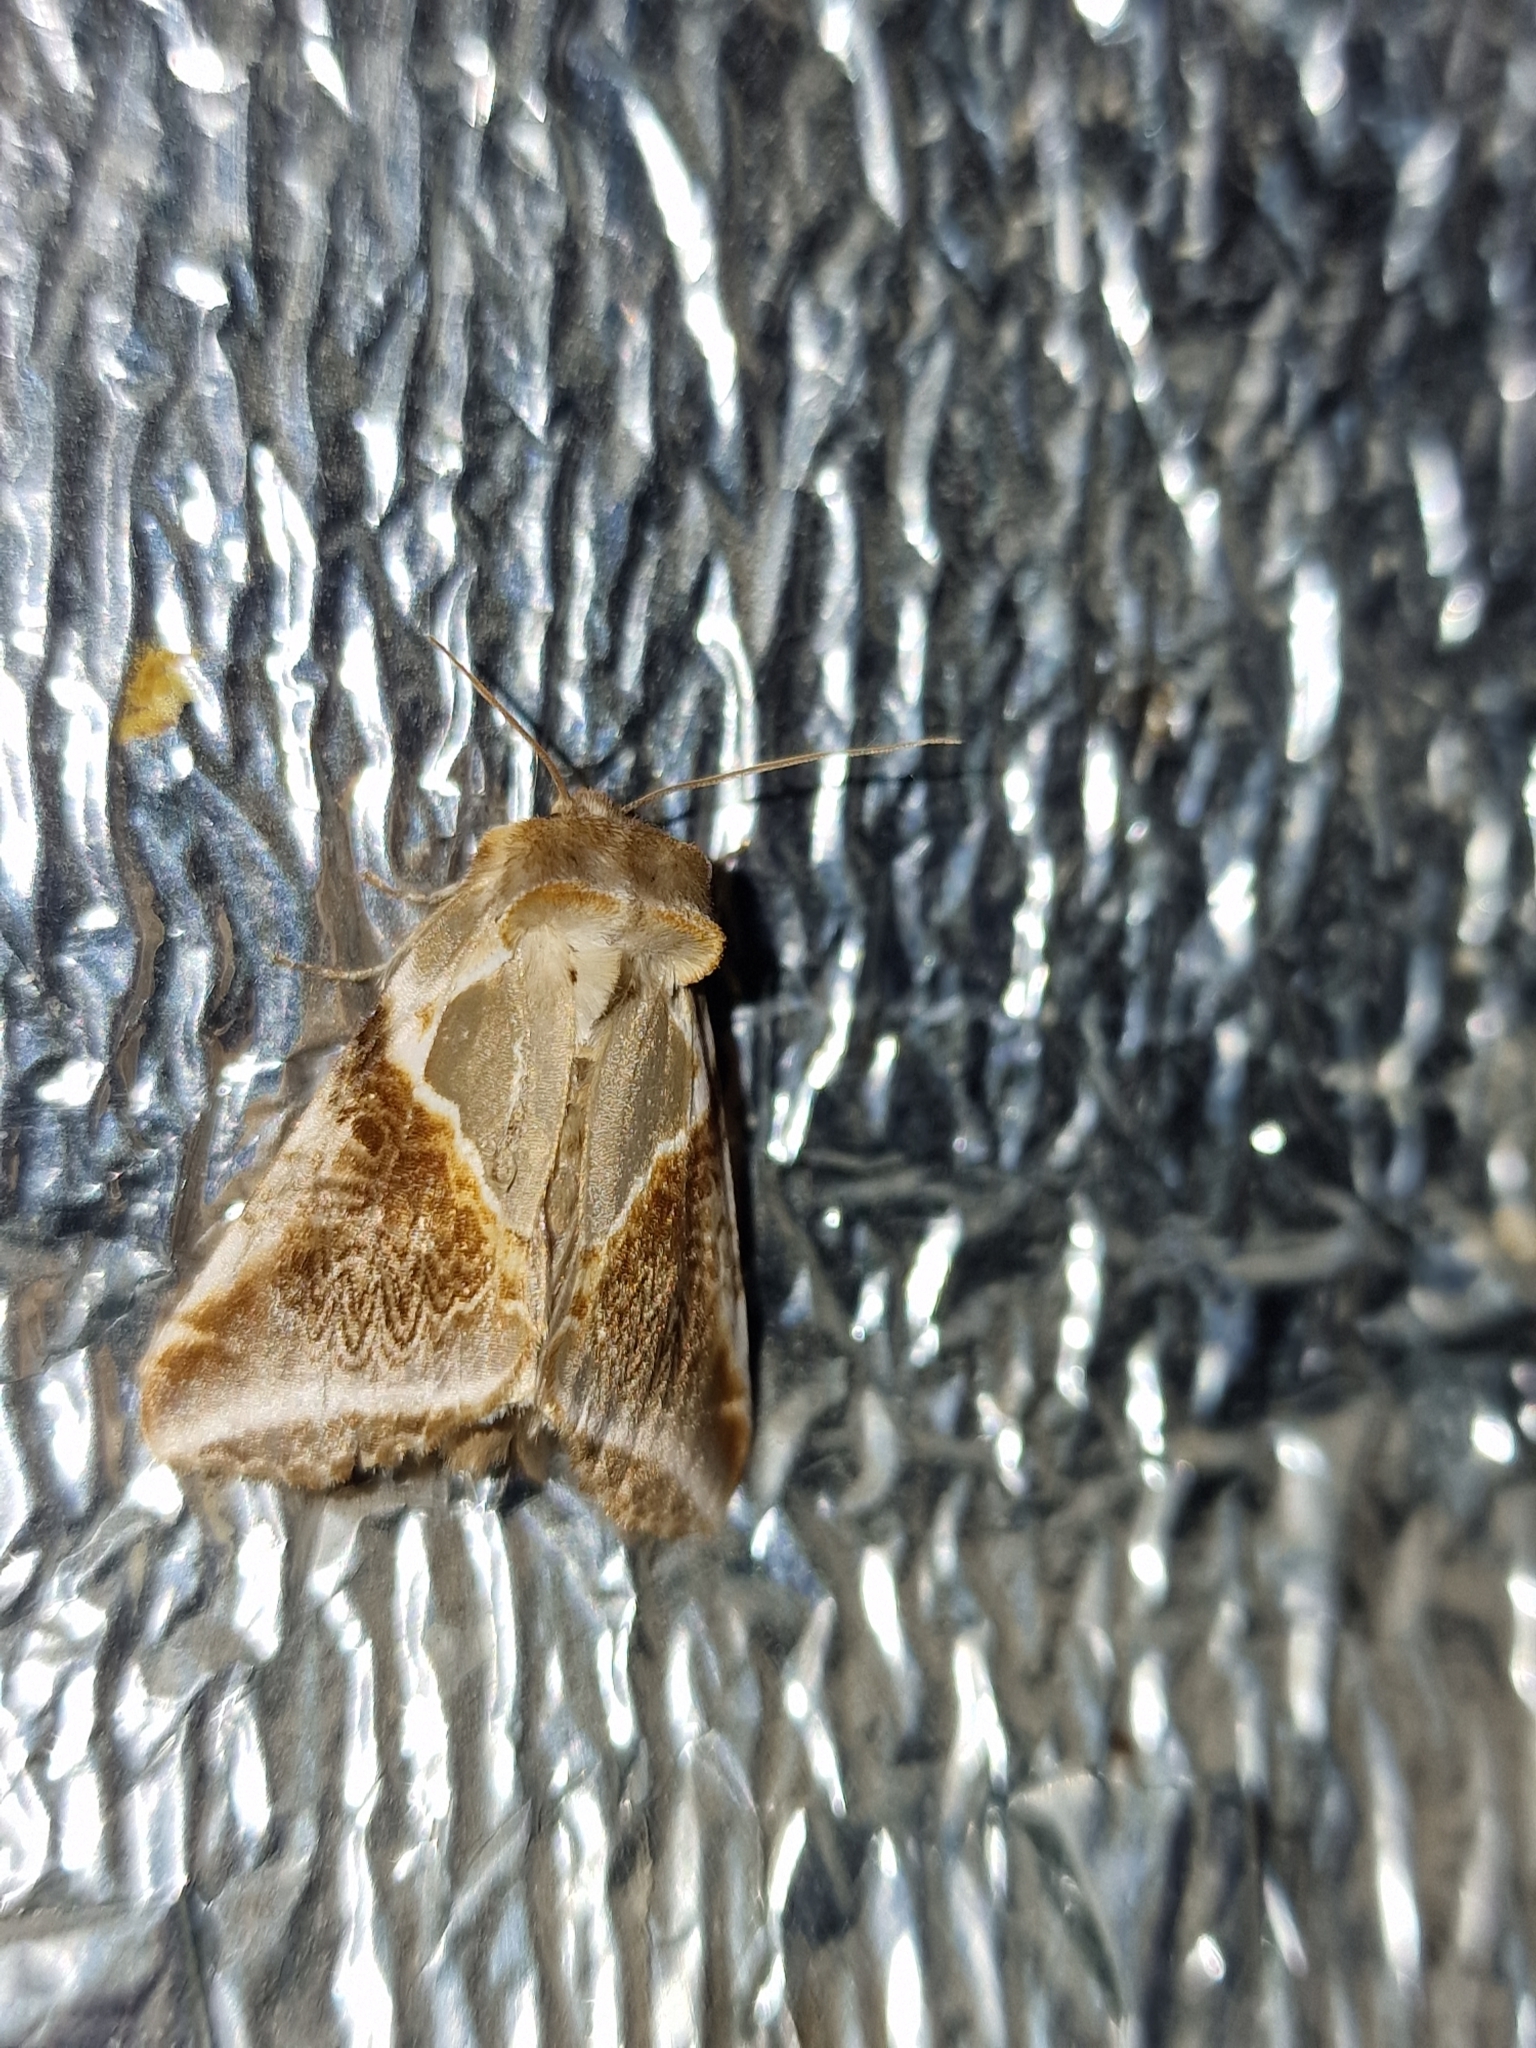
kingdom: Animalia
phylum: Arthropoda
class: Insecta
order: Lepidoptera
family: Drepanidae
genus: Habrosyne
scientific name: Habrosyne pyritoides
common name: Buff arches
